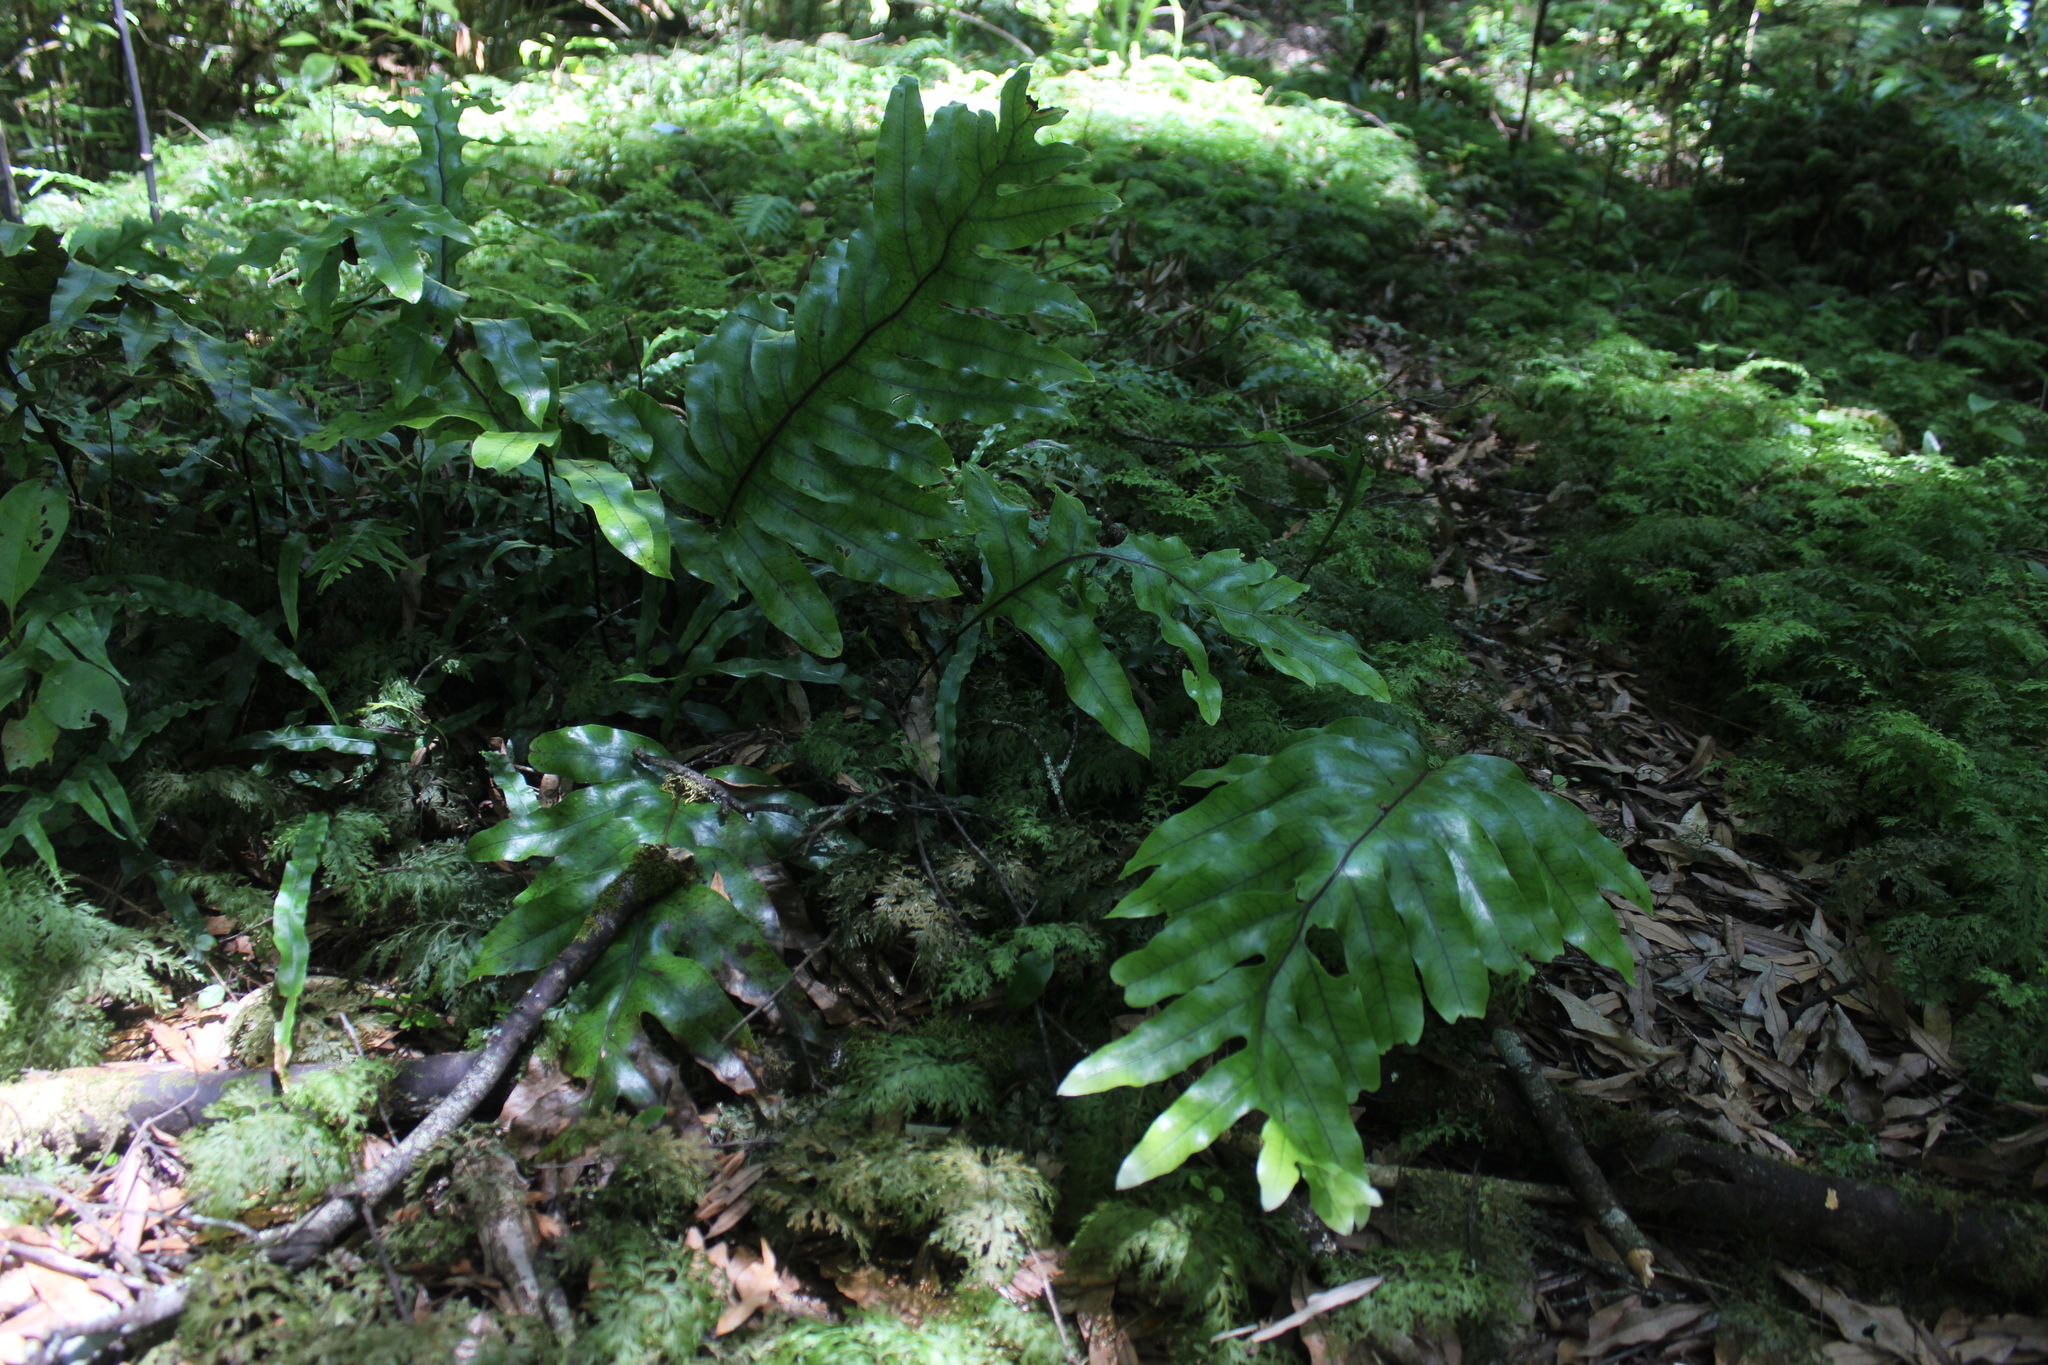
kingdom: Plantae
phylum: Tracheophyta
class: Polypodiopsida
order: Polypodiales
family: Polypodiaceae
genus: Lecanopteris
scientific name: Lecanopteris pustulata
